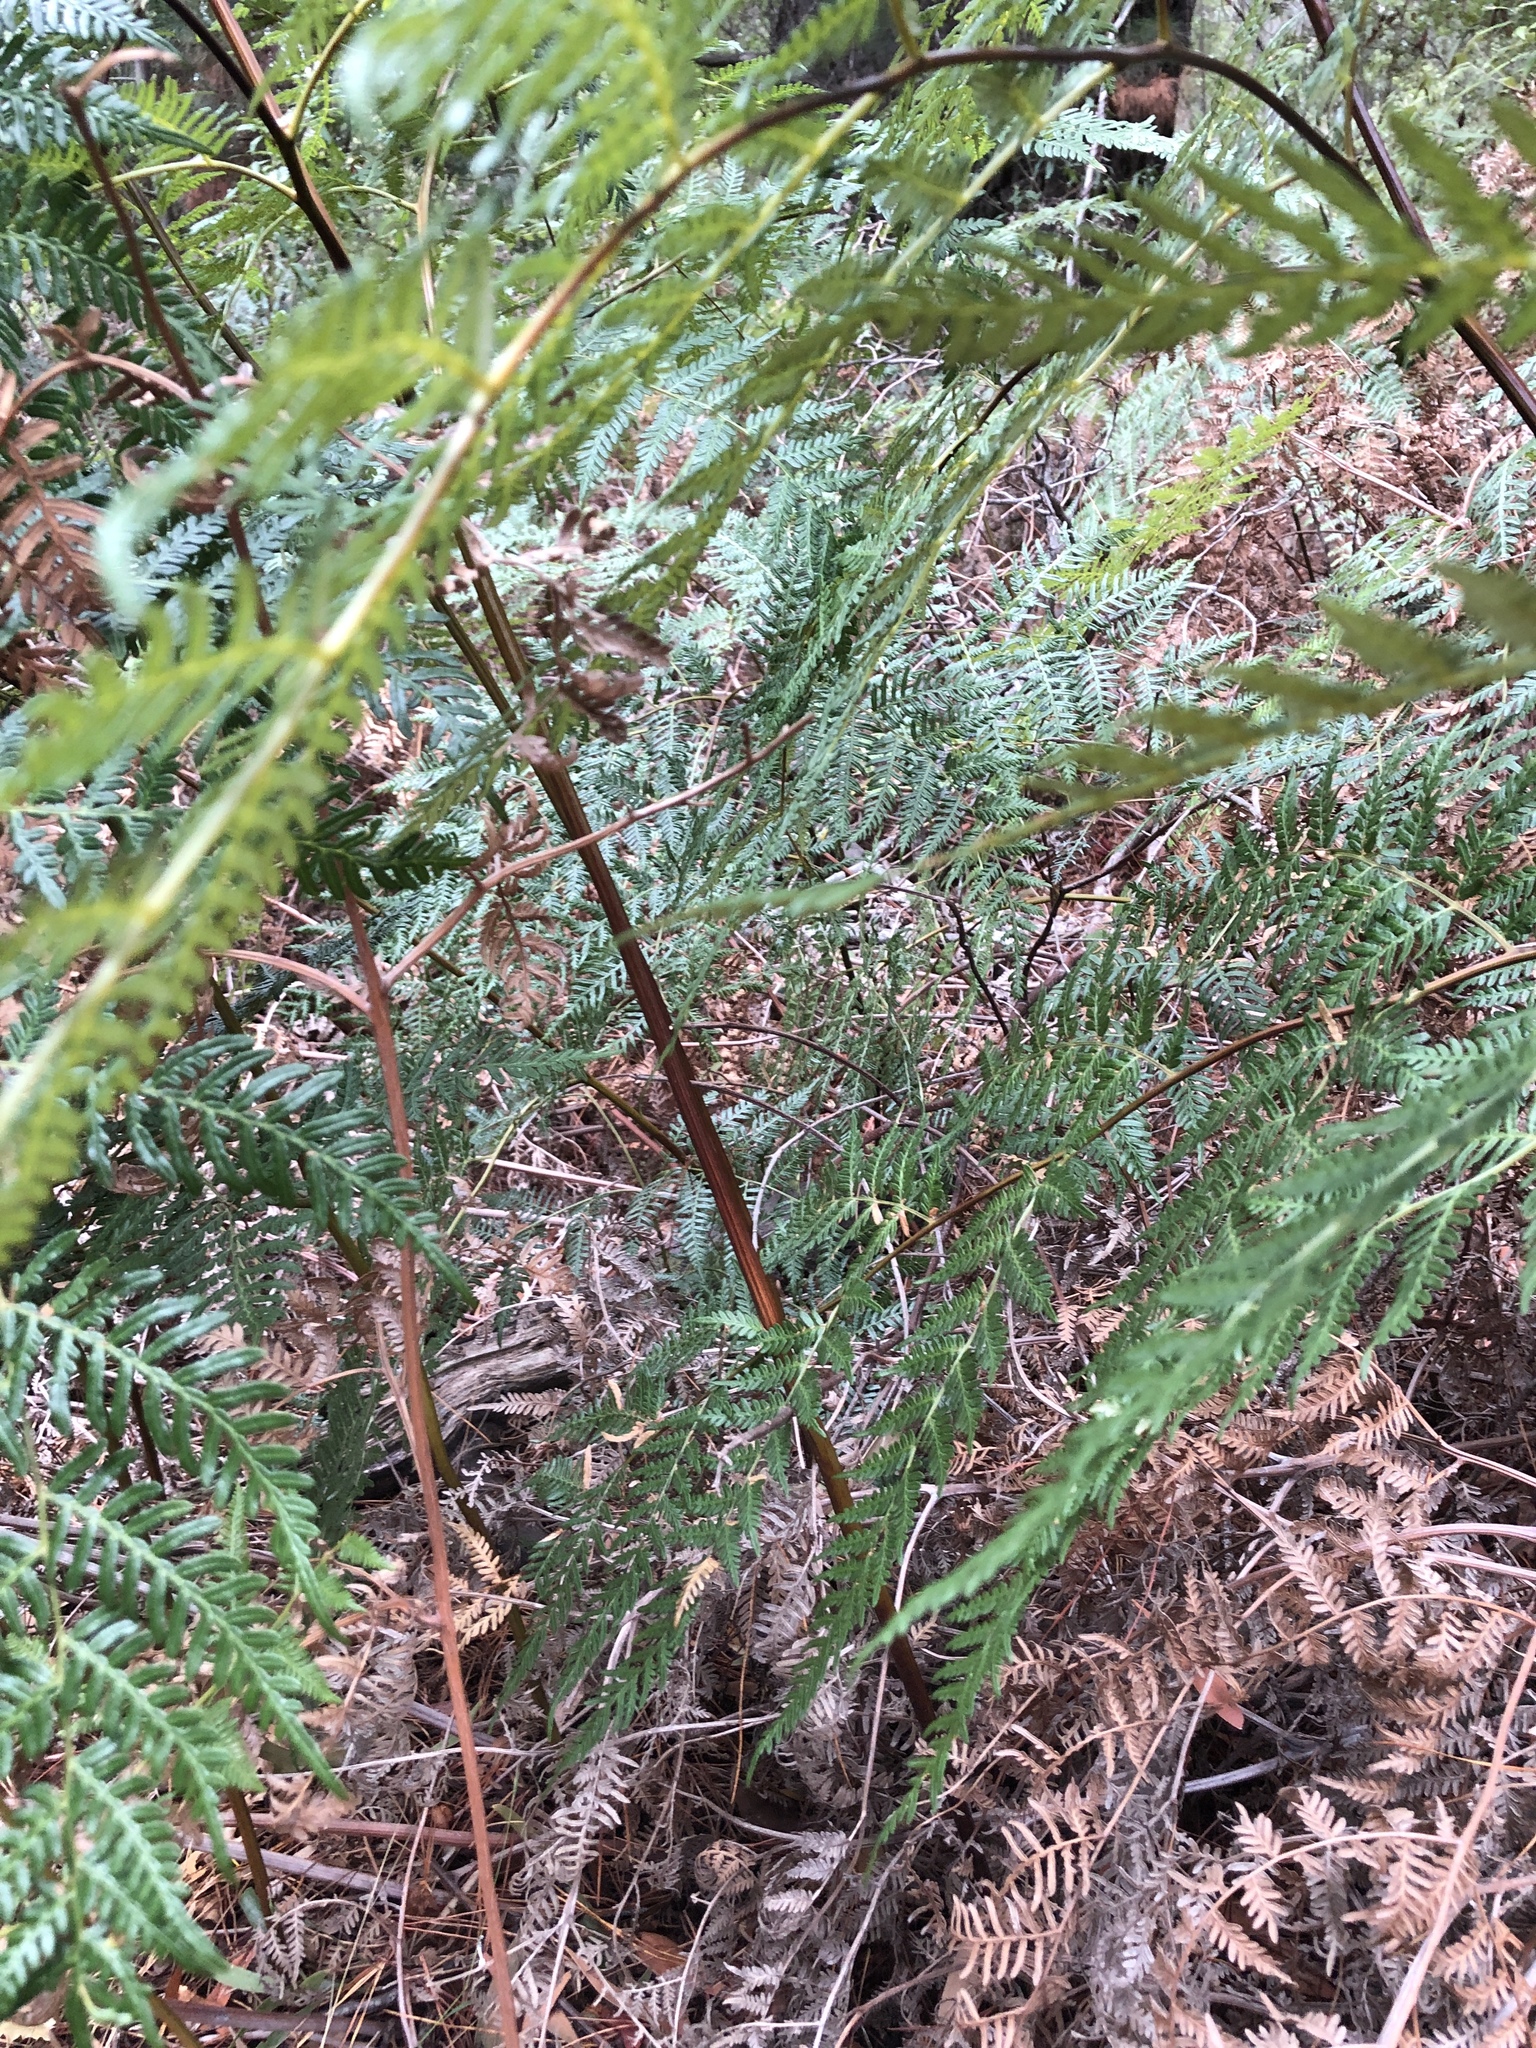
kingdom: Plantae
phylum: Tracheophyta
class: Polypodiopsida
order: Polypodiales
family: Dennstaedtiaceae
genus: Pteridium
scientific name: Pteridium esculentum
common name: Bracken fern
